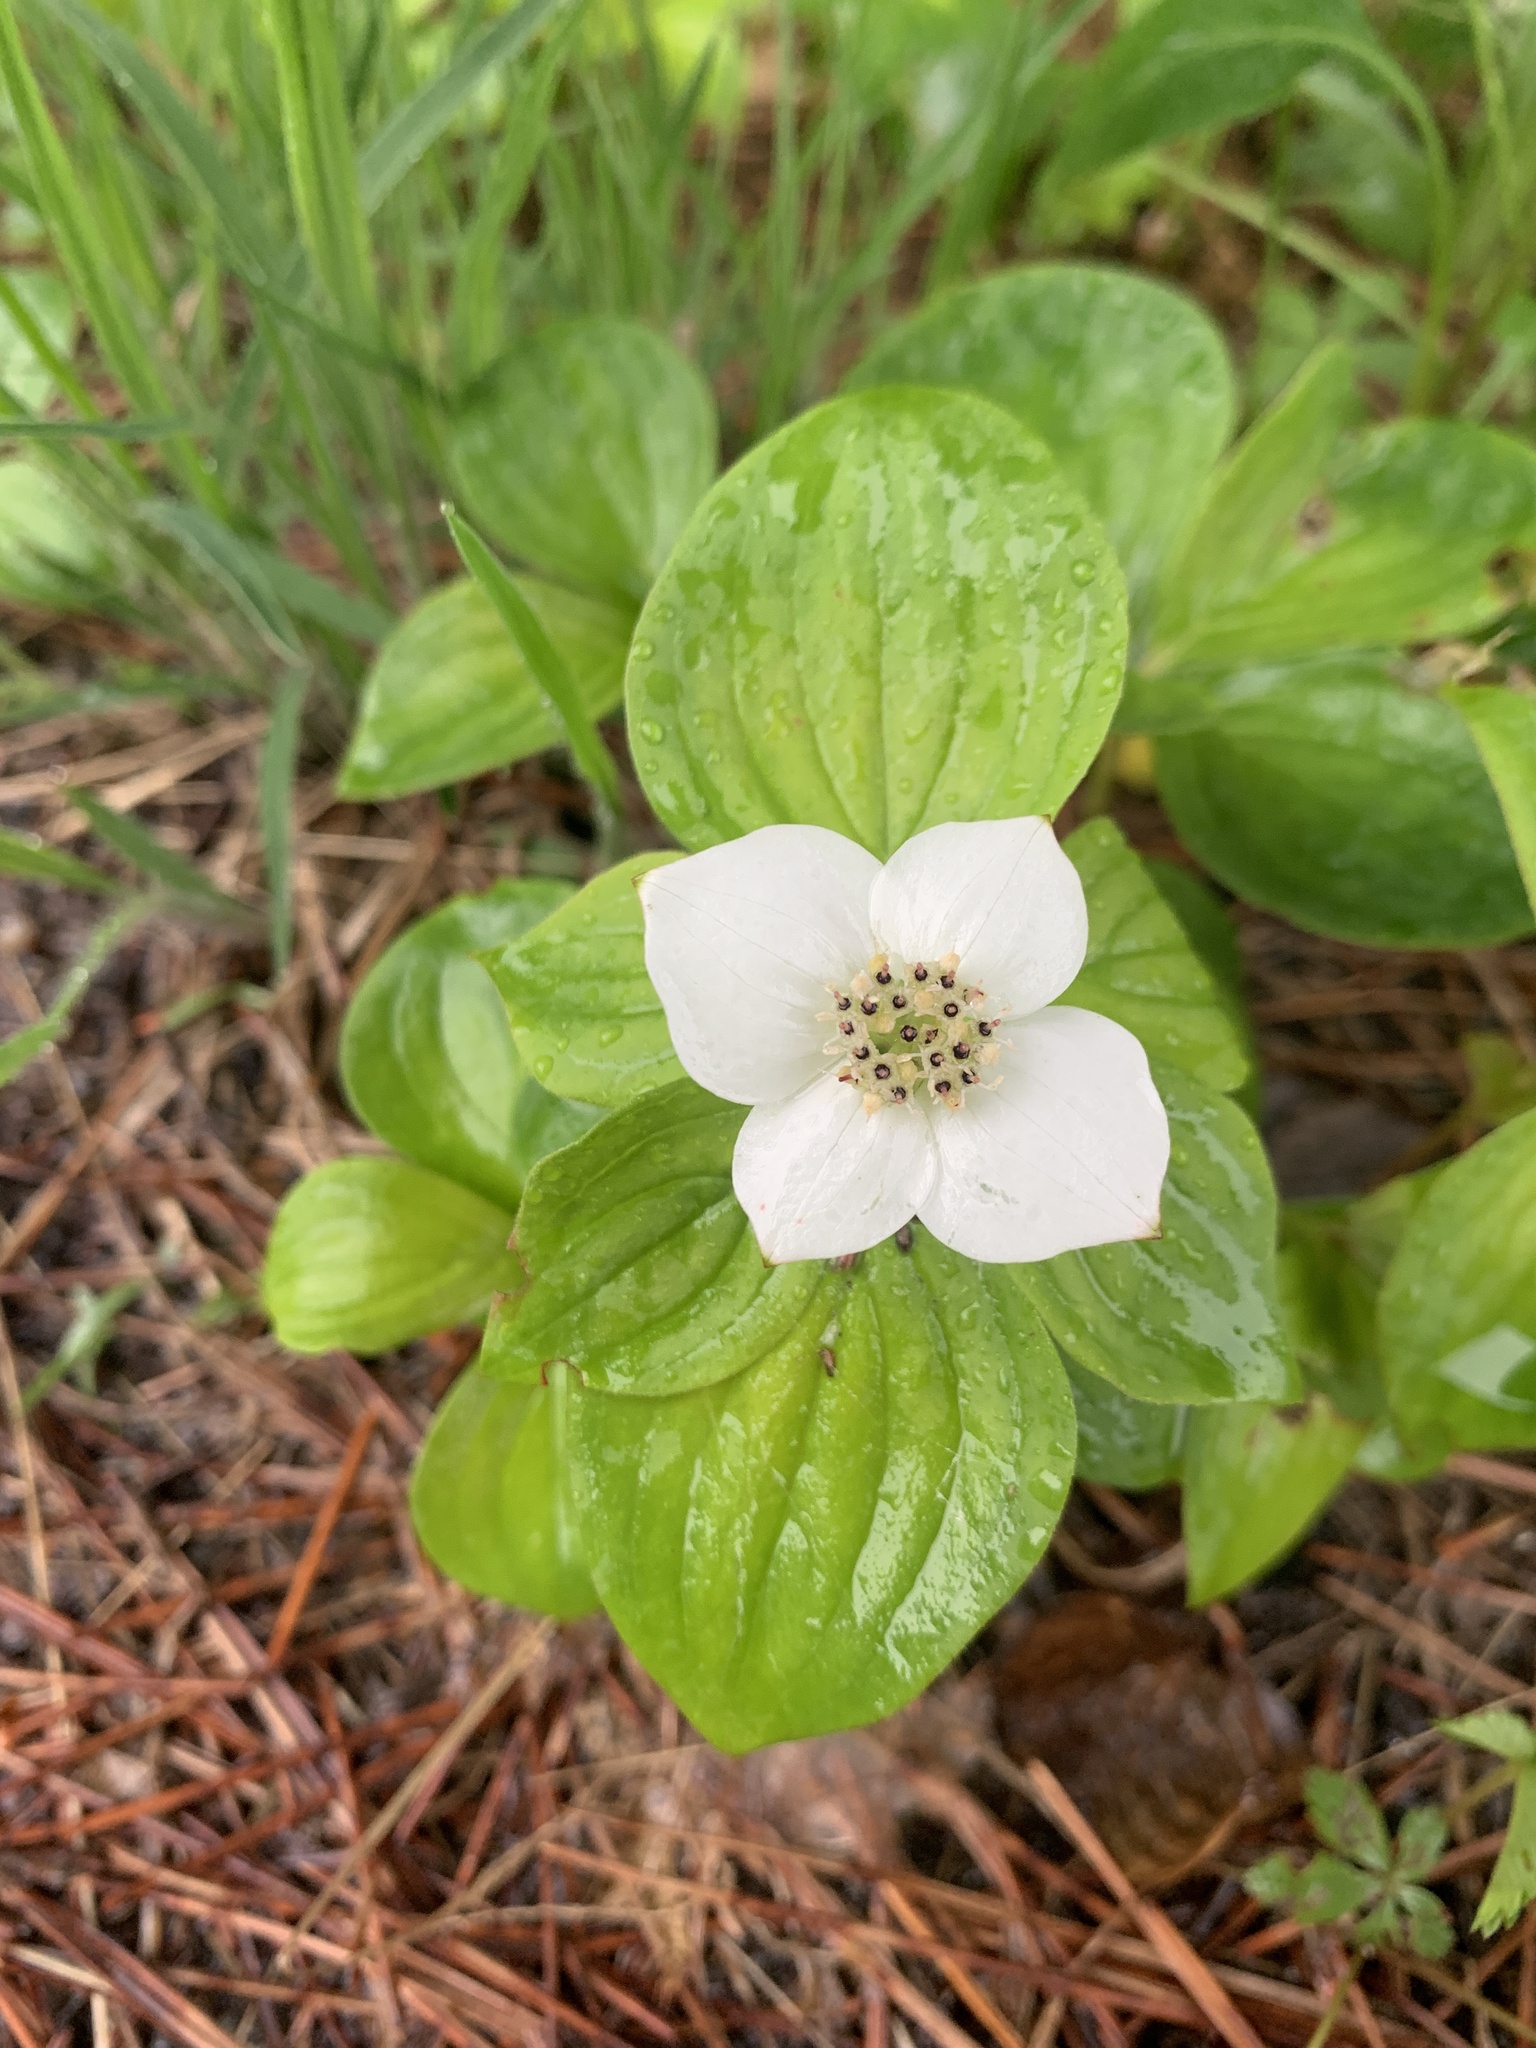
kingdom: Plantae
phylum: Tracheophyta
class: Magnoliopsida
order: Cornales
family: Cornaceae
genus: Cornus
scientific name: Cornus canadensis
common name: Creeping dogwood
